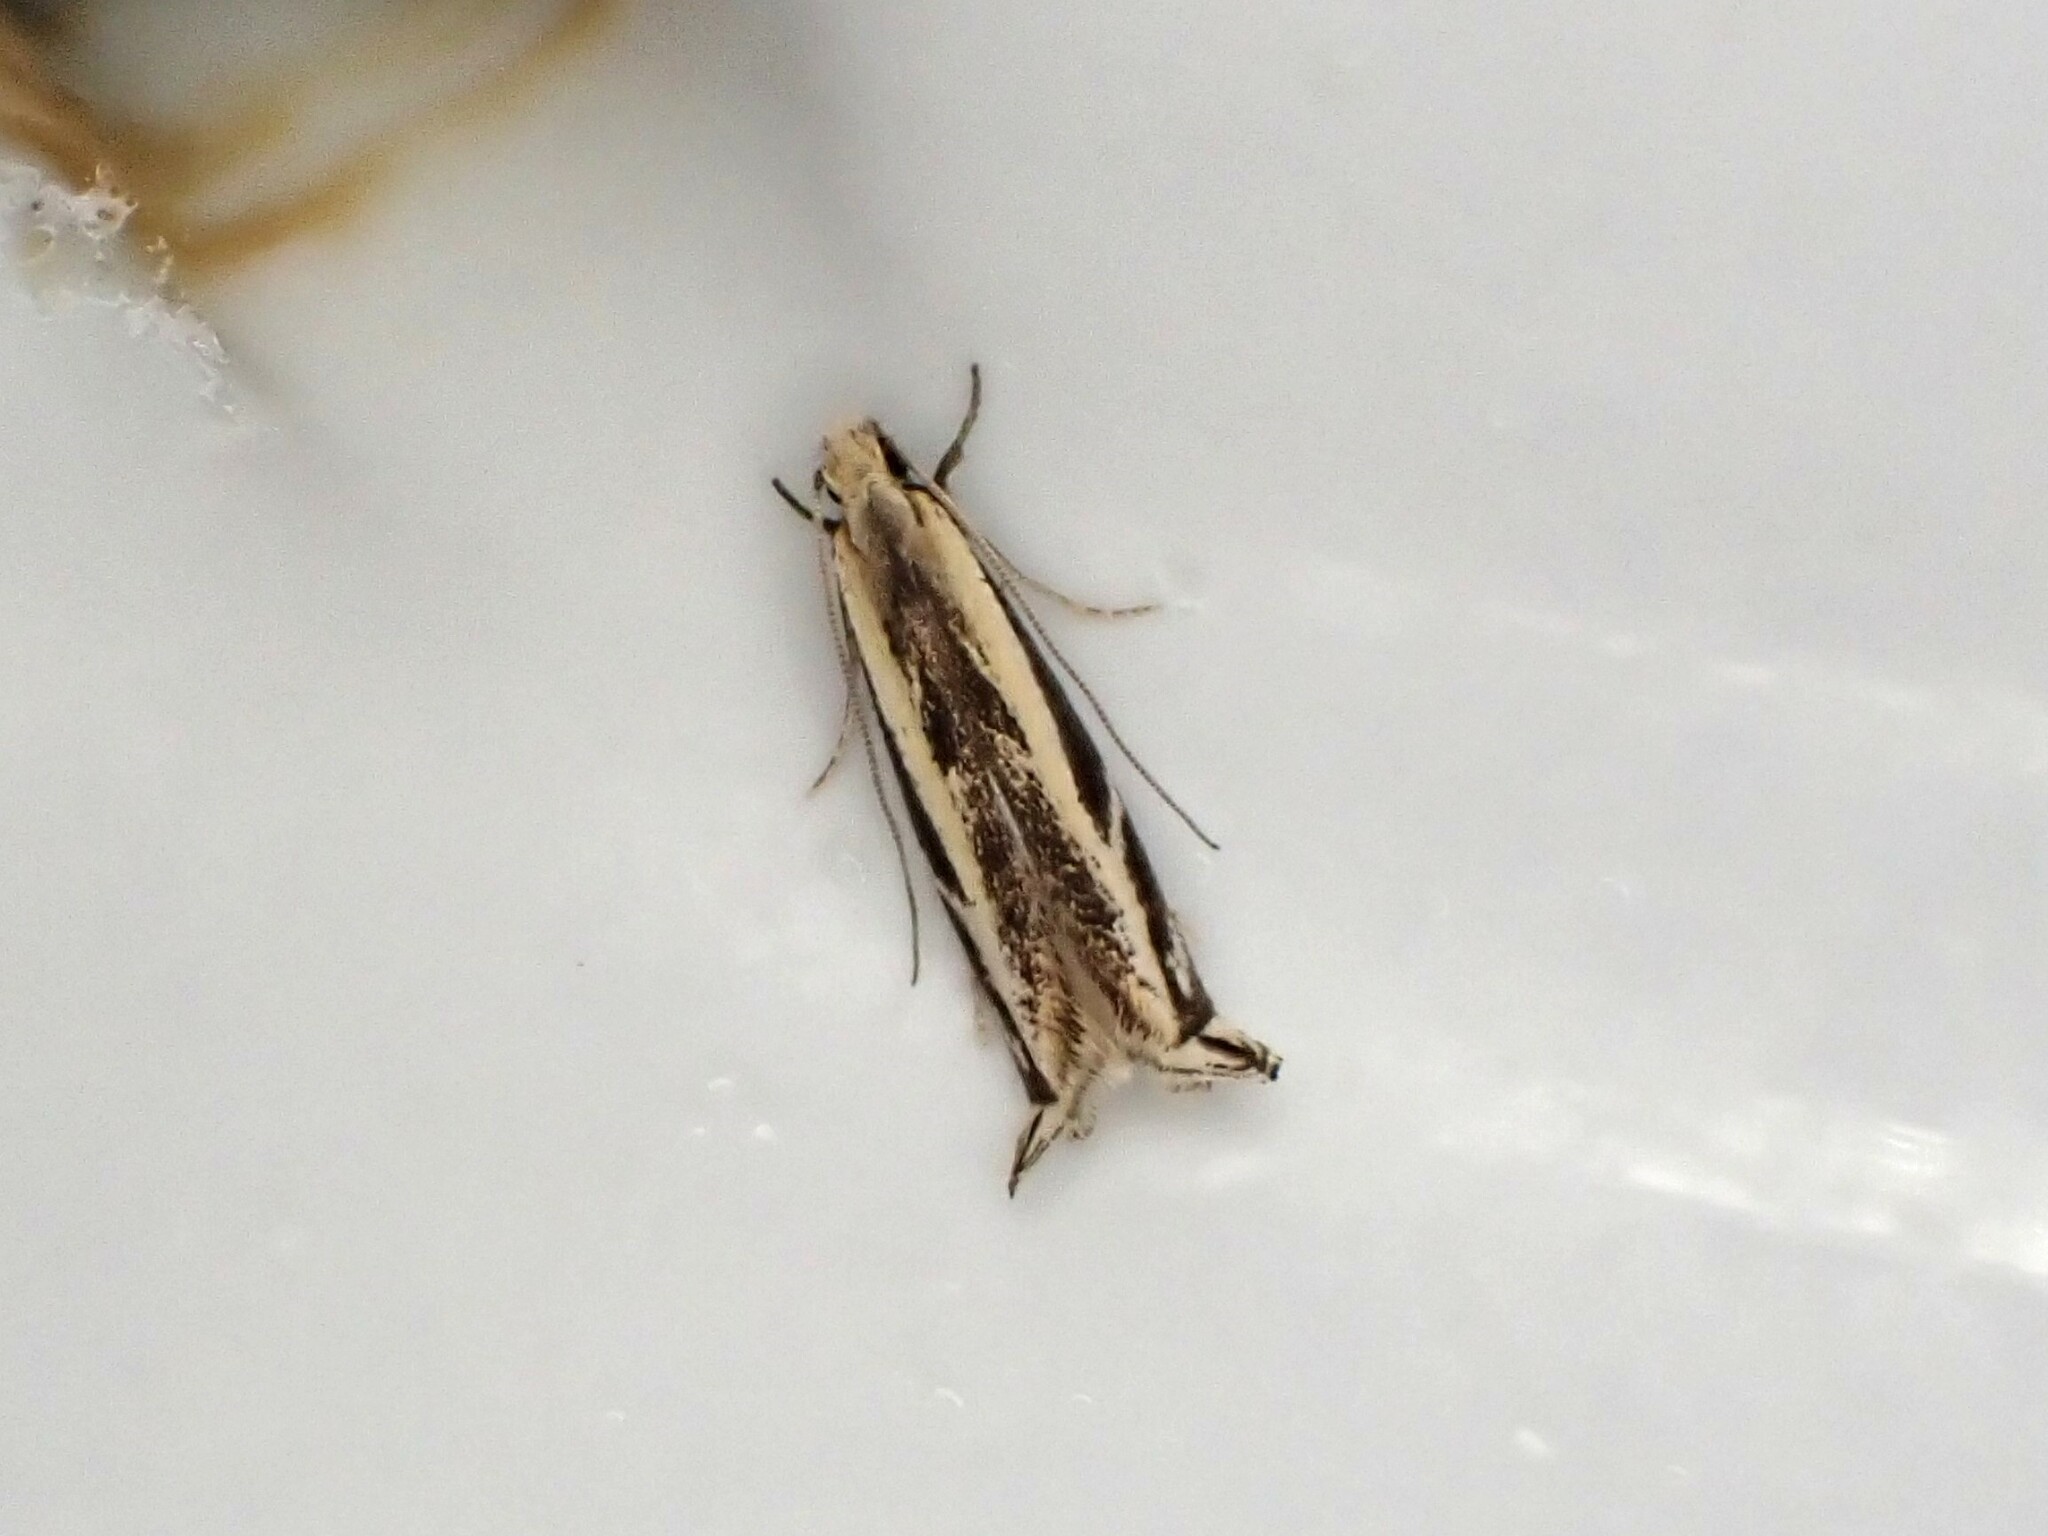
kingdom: Animalia
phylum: Arthropoda
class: Insecta
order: Lepidoptera
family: Tineidae
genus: Erechthias
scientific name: Erechthias terminella
